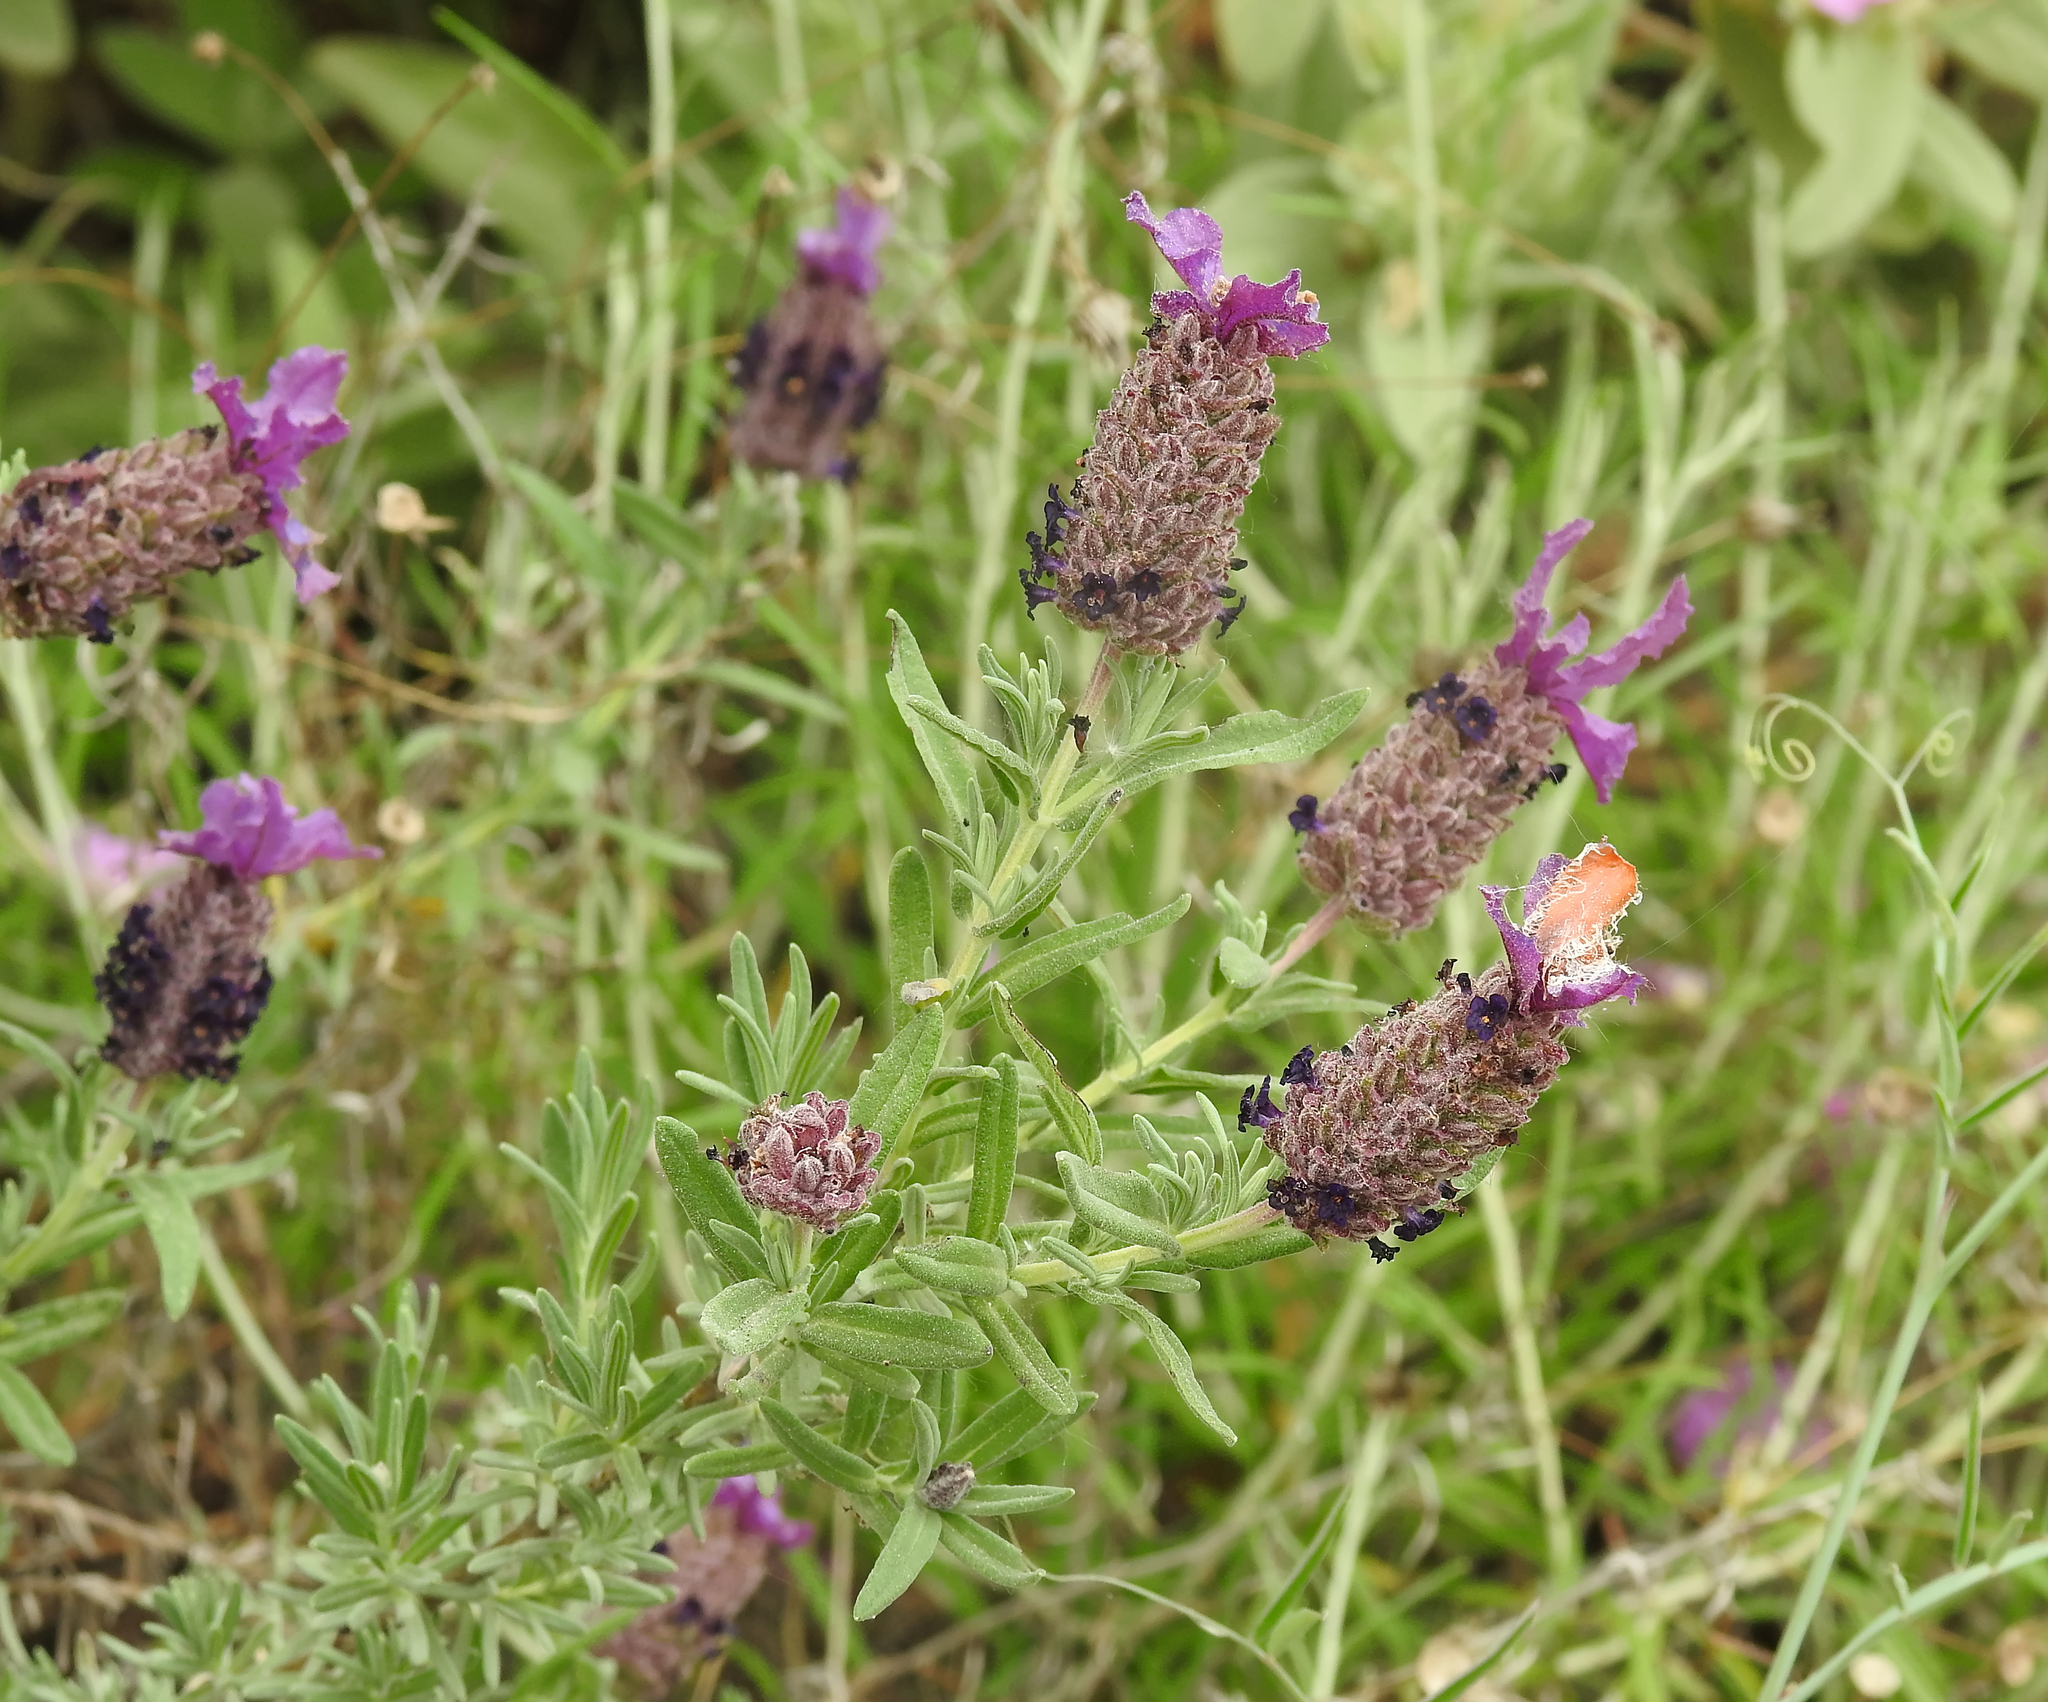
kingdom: Plantae
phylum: Tracheophyta
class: Magnoliopsida
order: Lamiales
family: Lamiaceae
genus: Lavandula
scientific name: Lavandula stoechas
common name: French lavender
